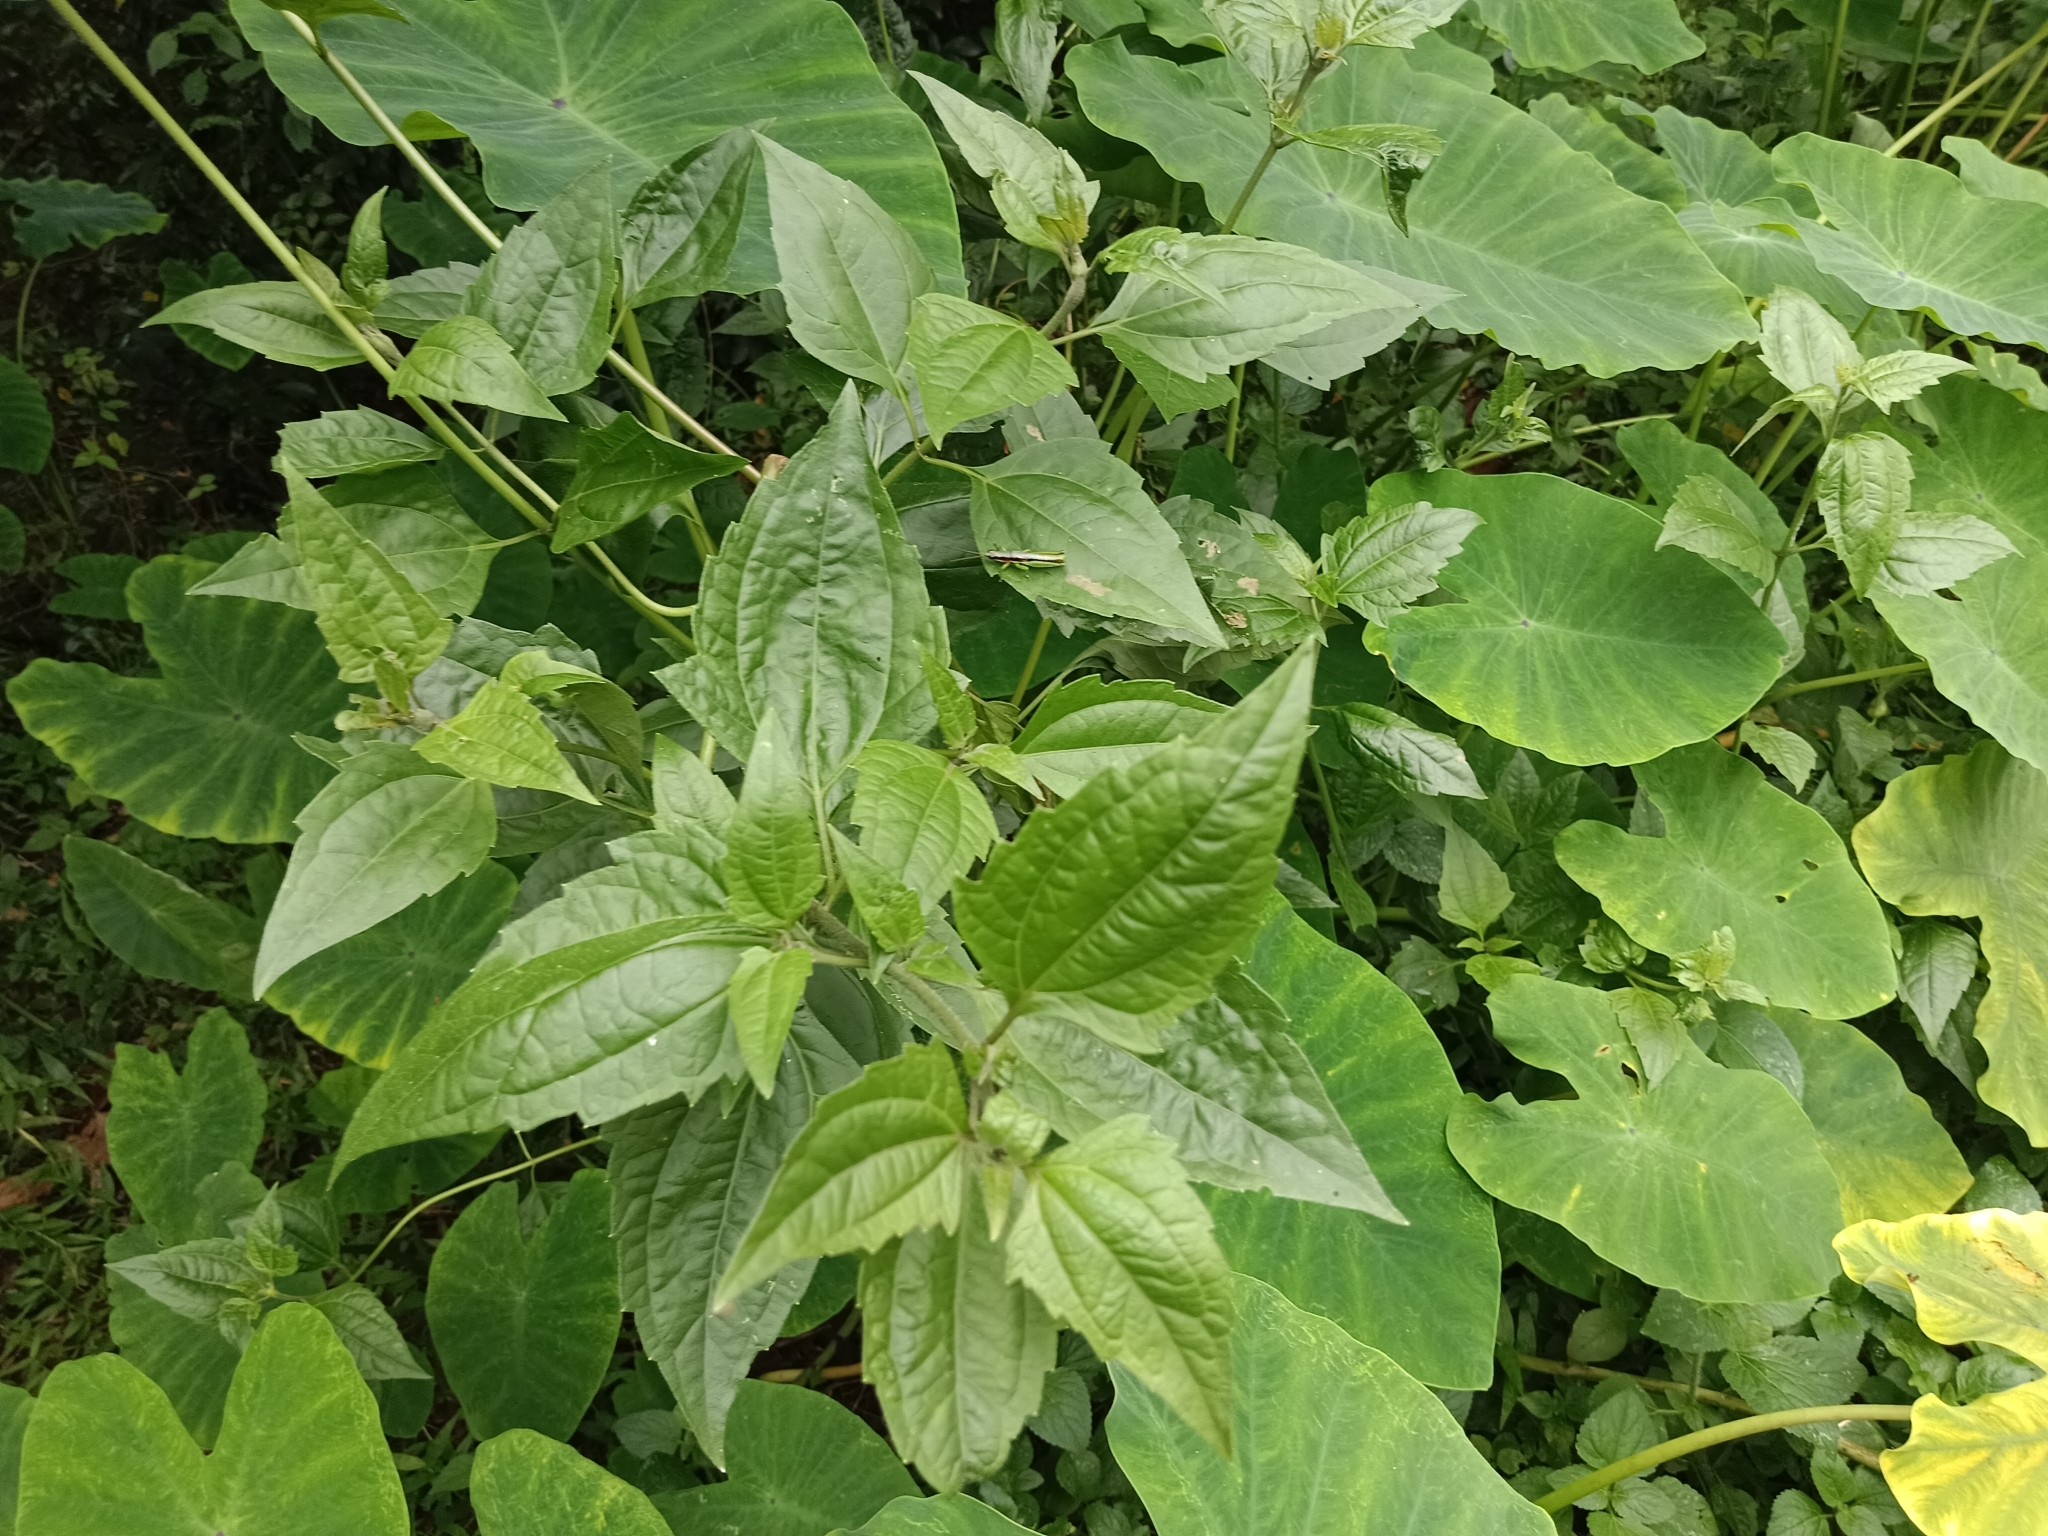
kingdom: Plantae
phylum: Tracheophyta
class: Magnoliopsida
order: Asterales
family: Asteraceae
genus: Chromolaena
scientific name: Chromolaena odorata
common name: Siamweed
